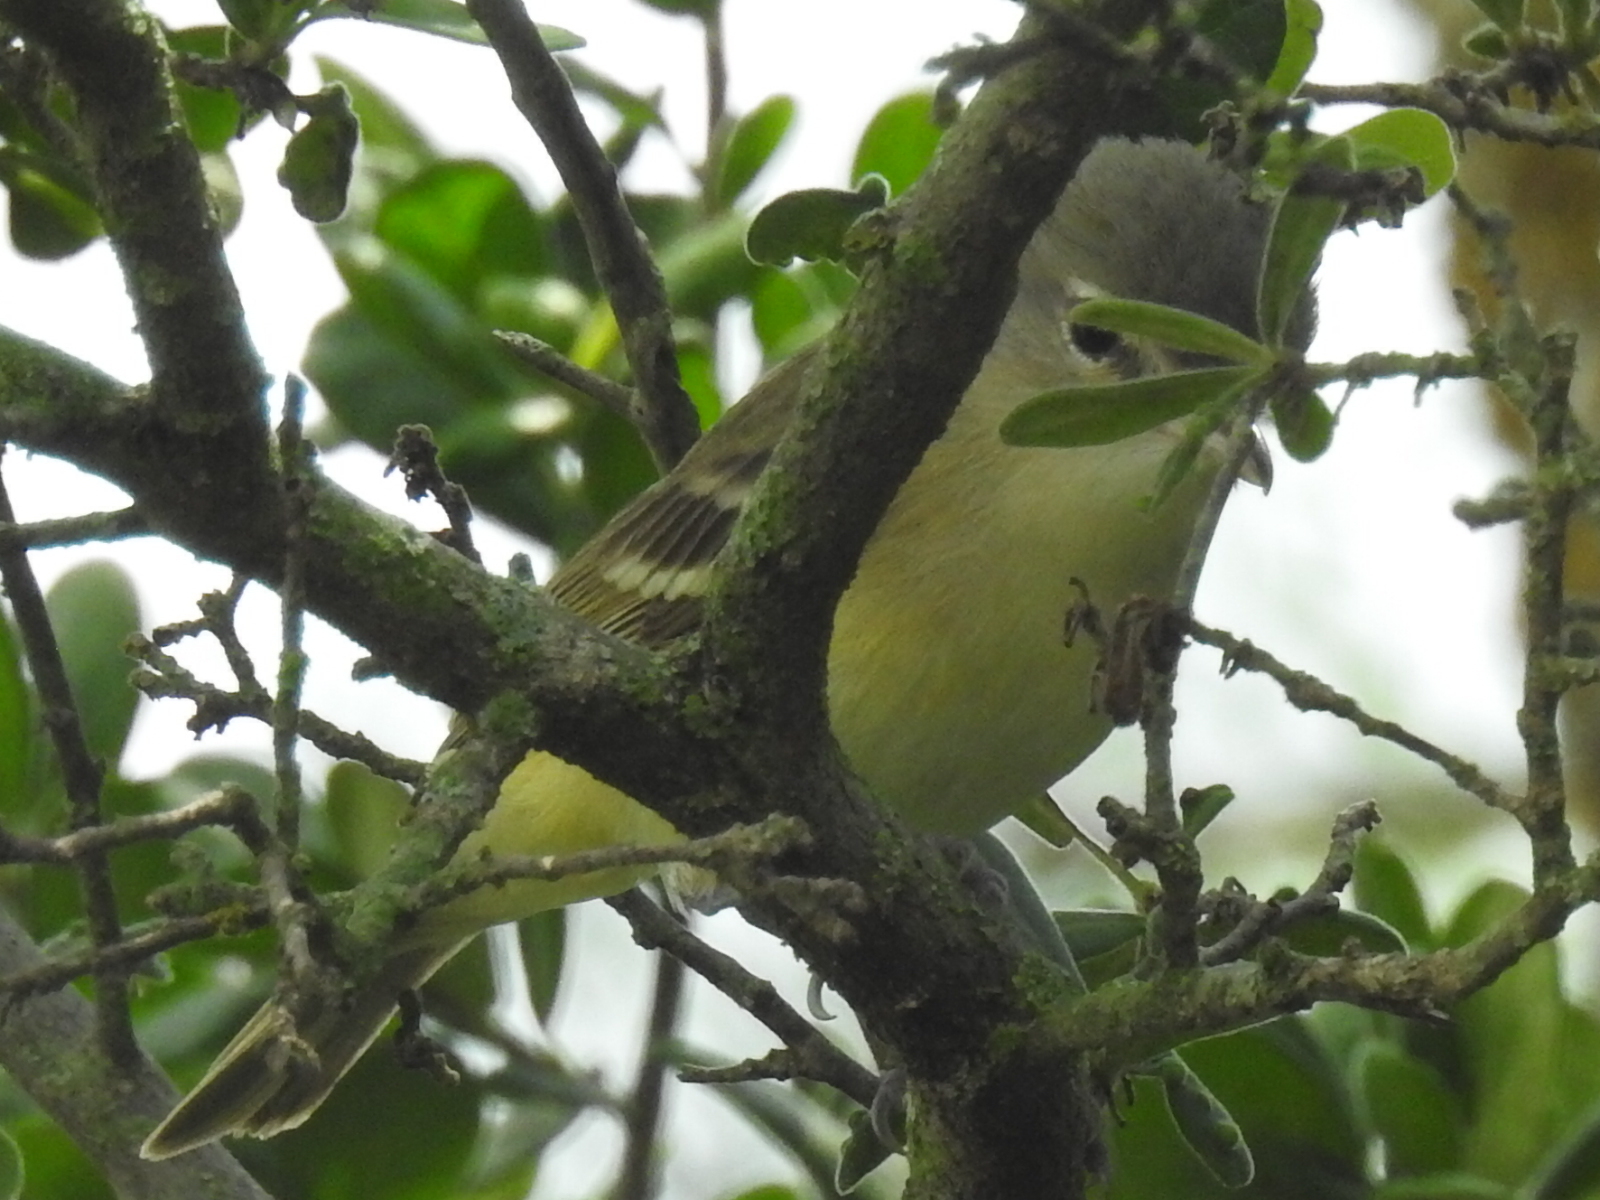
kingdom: Animalia
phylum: Chordata
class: Aves
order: Passeriformes
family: Vireonidae
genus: Vireo
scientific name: Vireo bellii
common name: Bell's vireo
